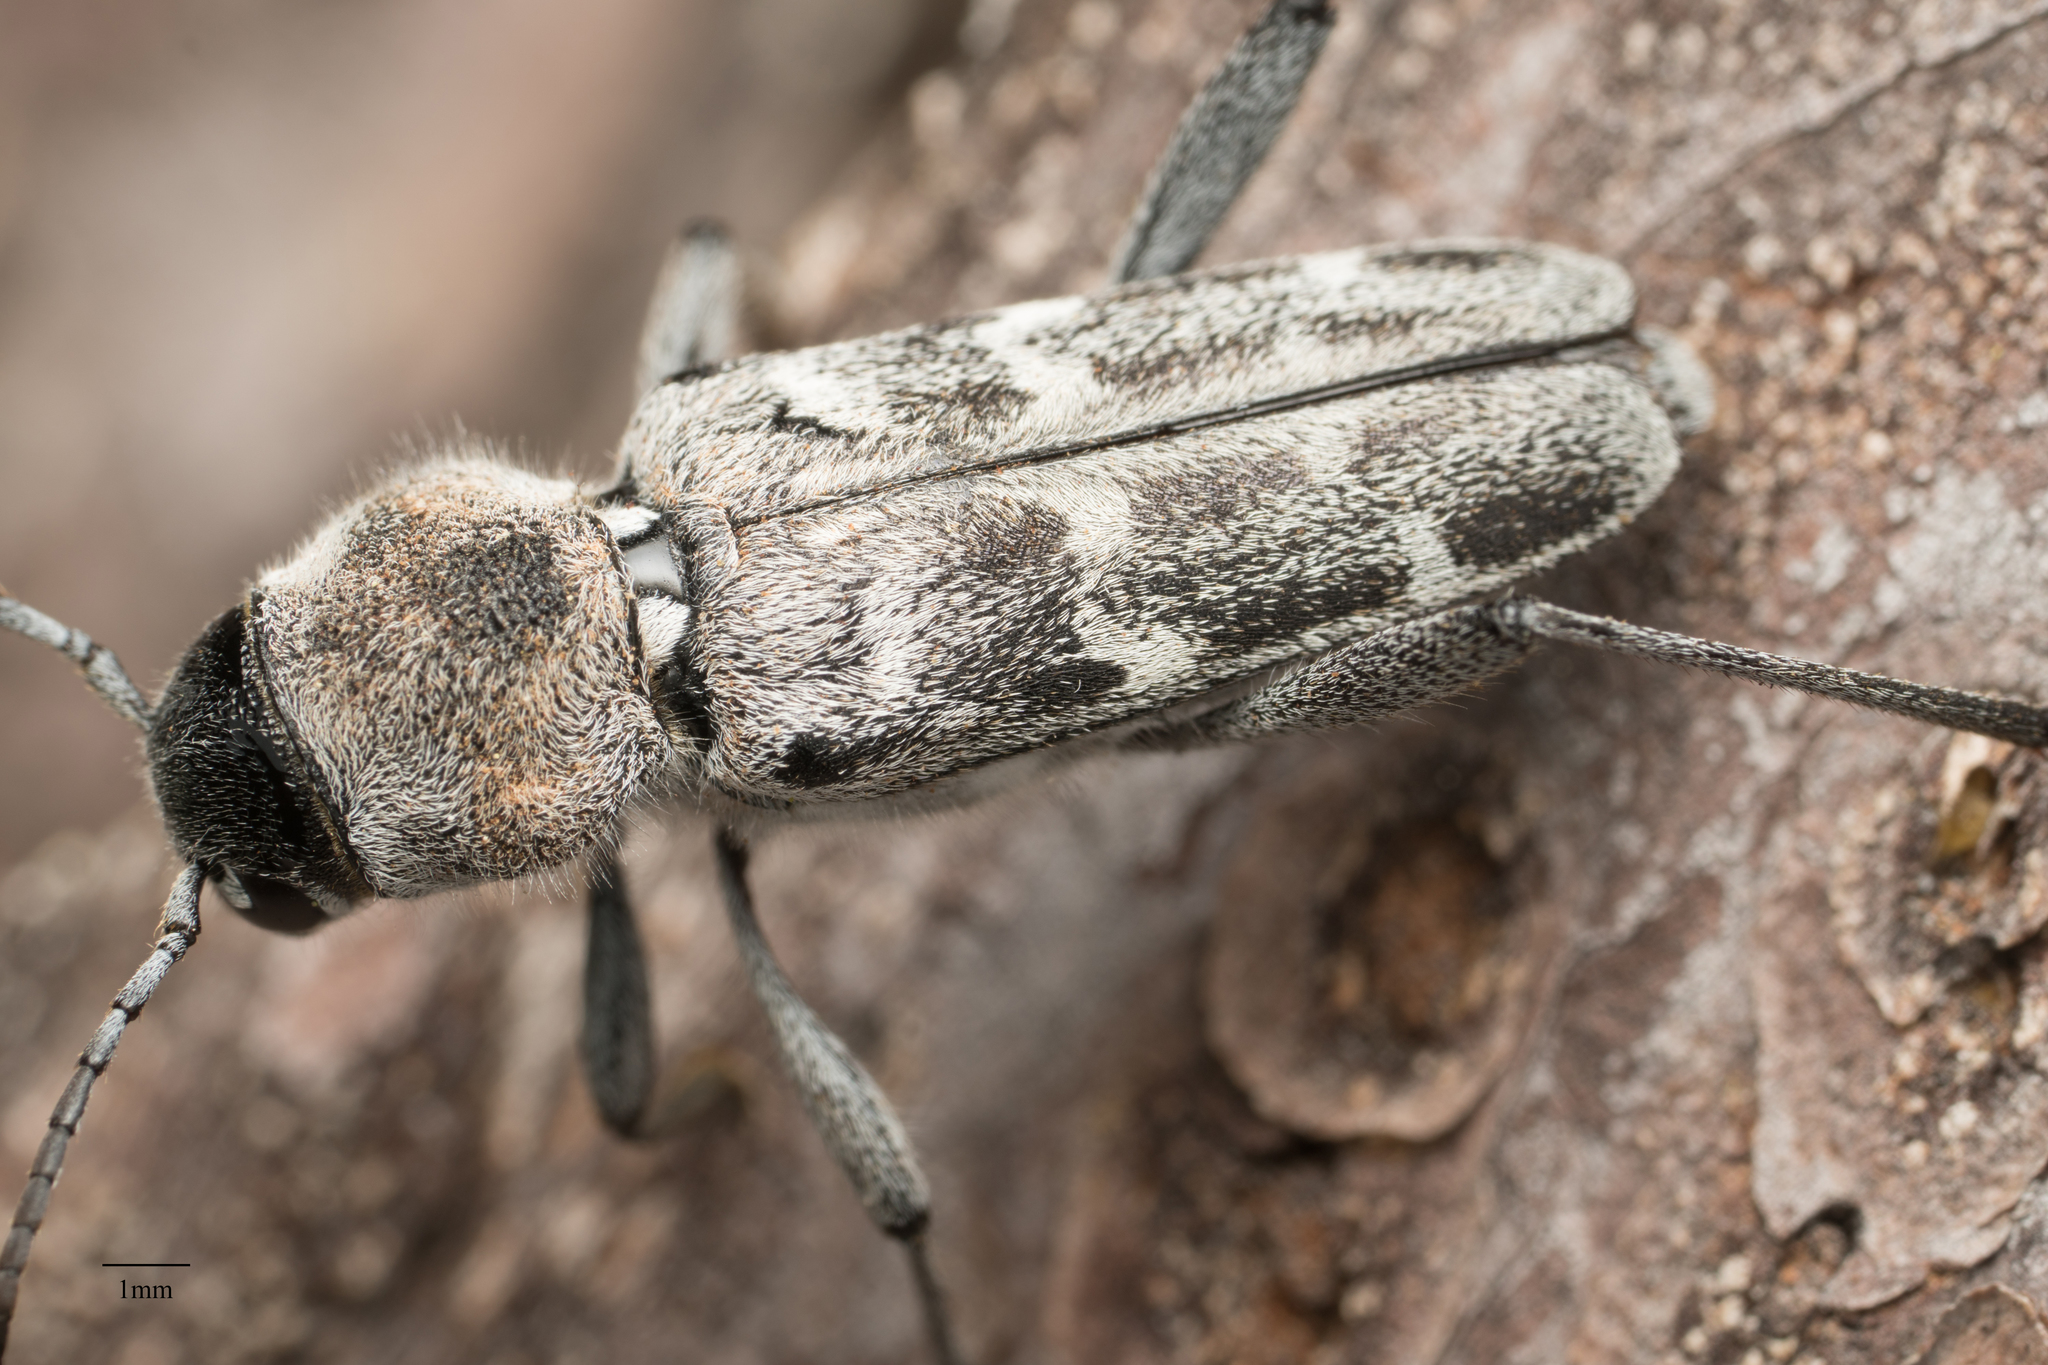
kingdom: Animalia
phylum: Arthropoda
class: Insecta
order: Coleoptera
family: Cerambycidae
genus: Xylotrechus
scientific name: Xylotrechus albonotatus
